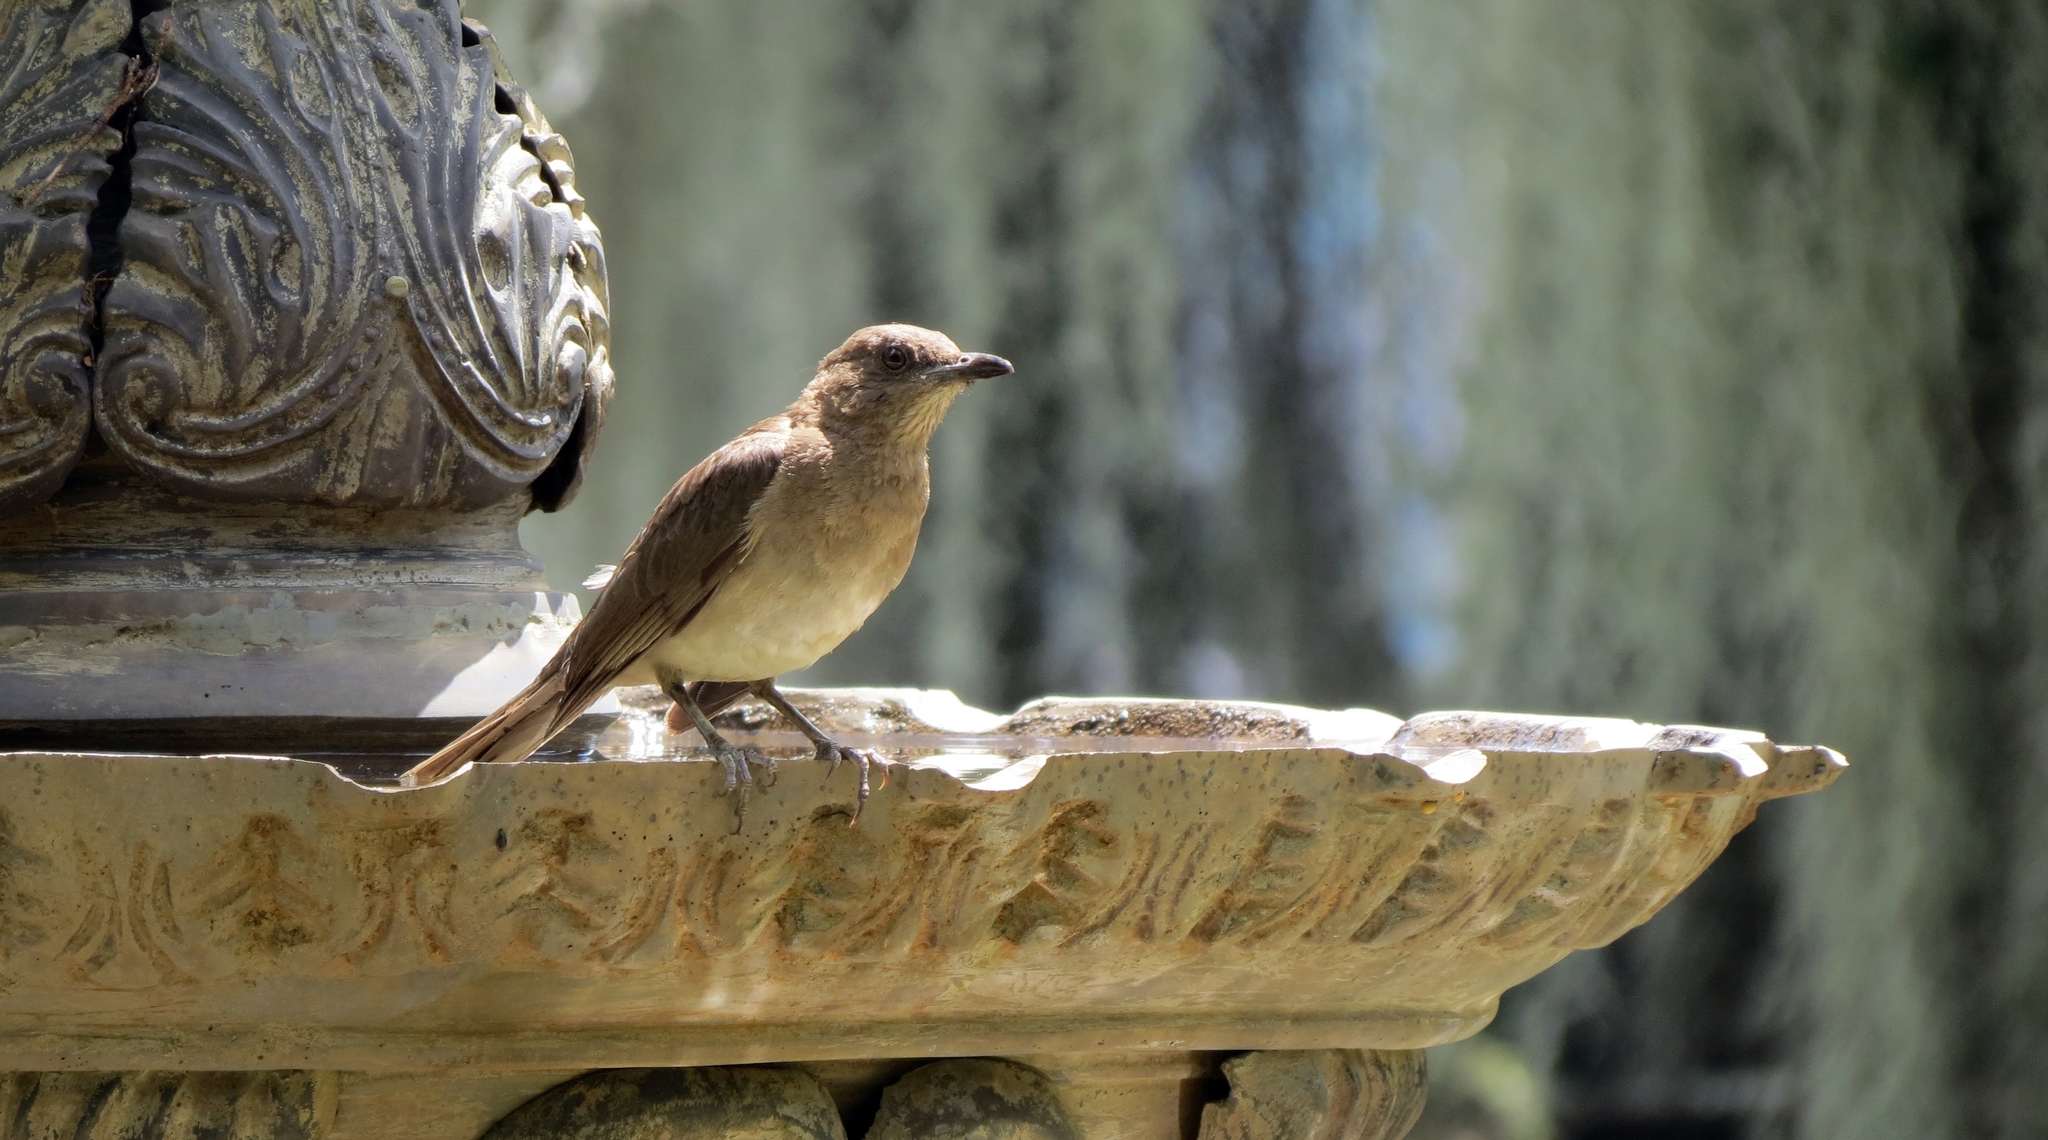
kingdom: Animalia
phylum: Chordata
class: Aves
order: Passeriformes
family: Turdidae
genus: Turdus
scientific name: Turdus ignobilis
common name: Black-billed thrush
